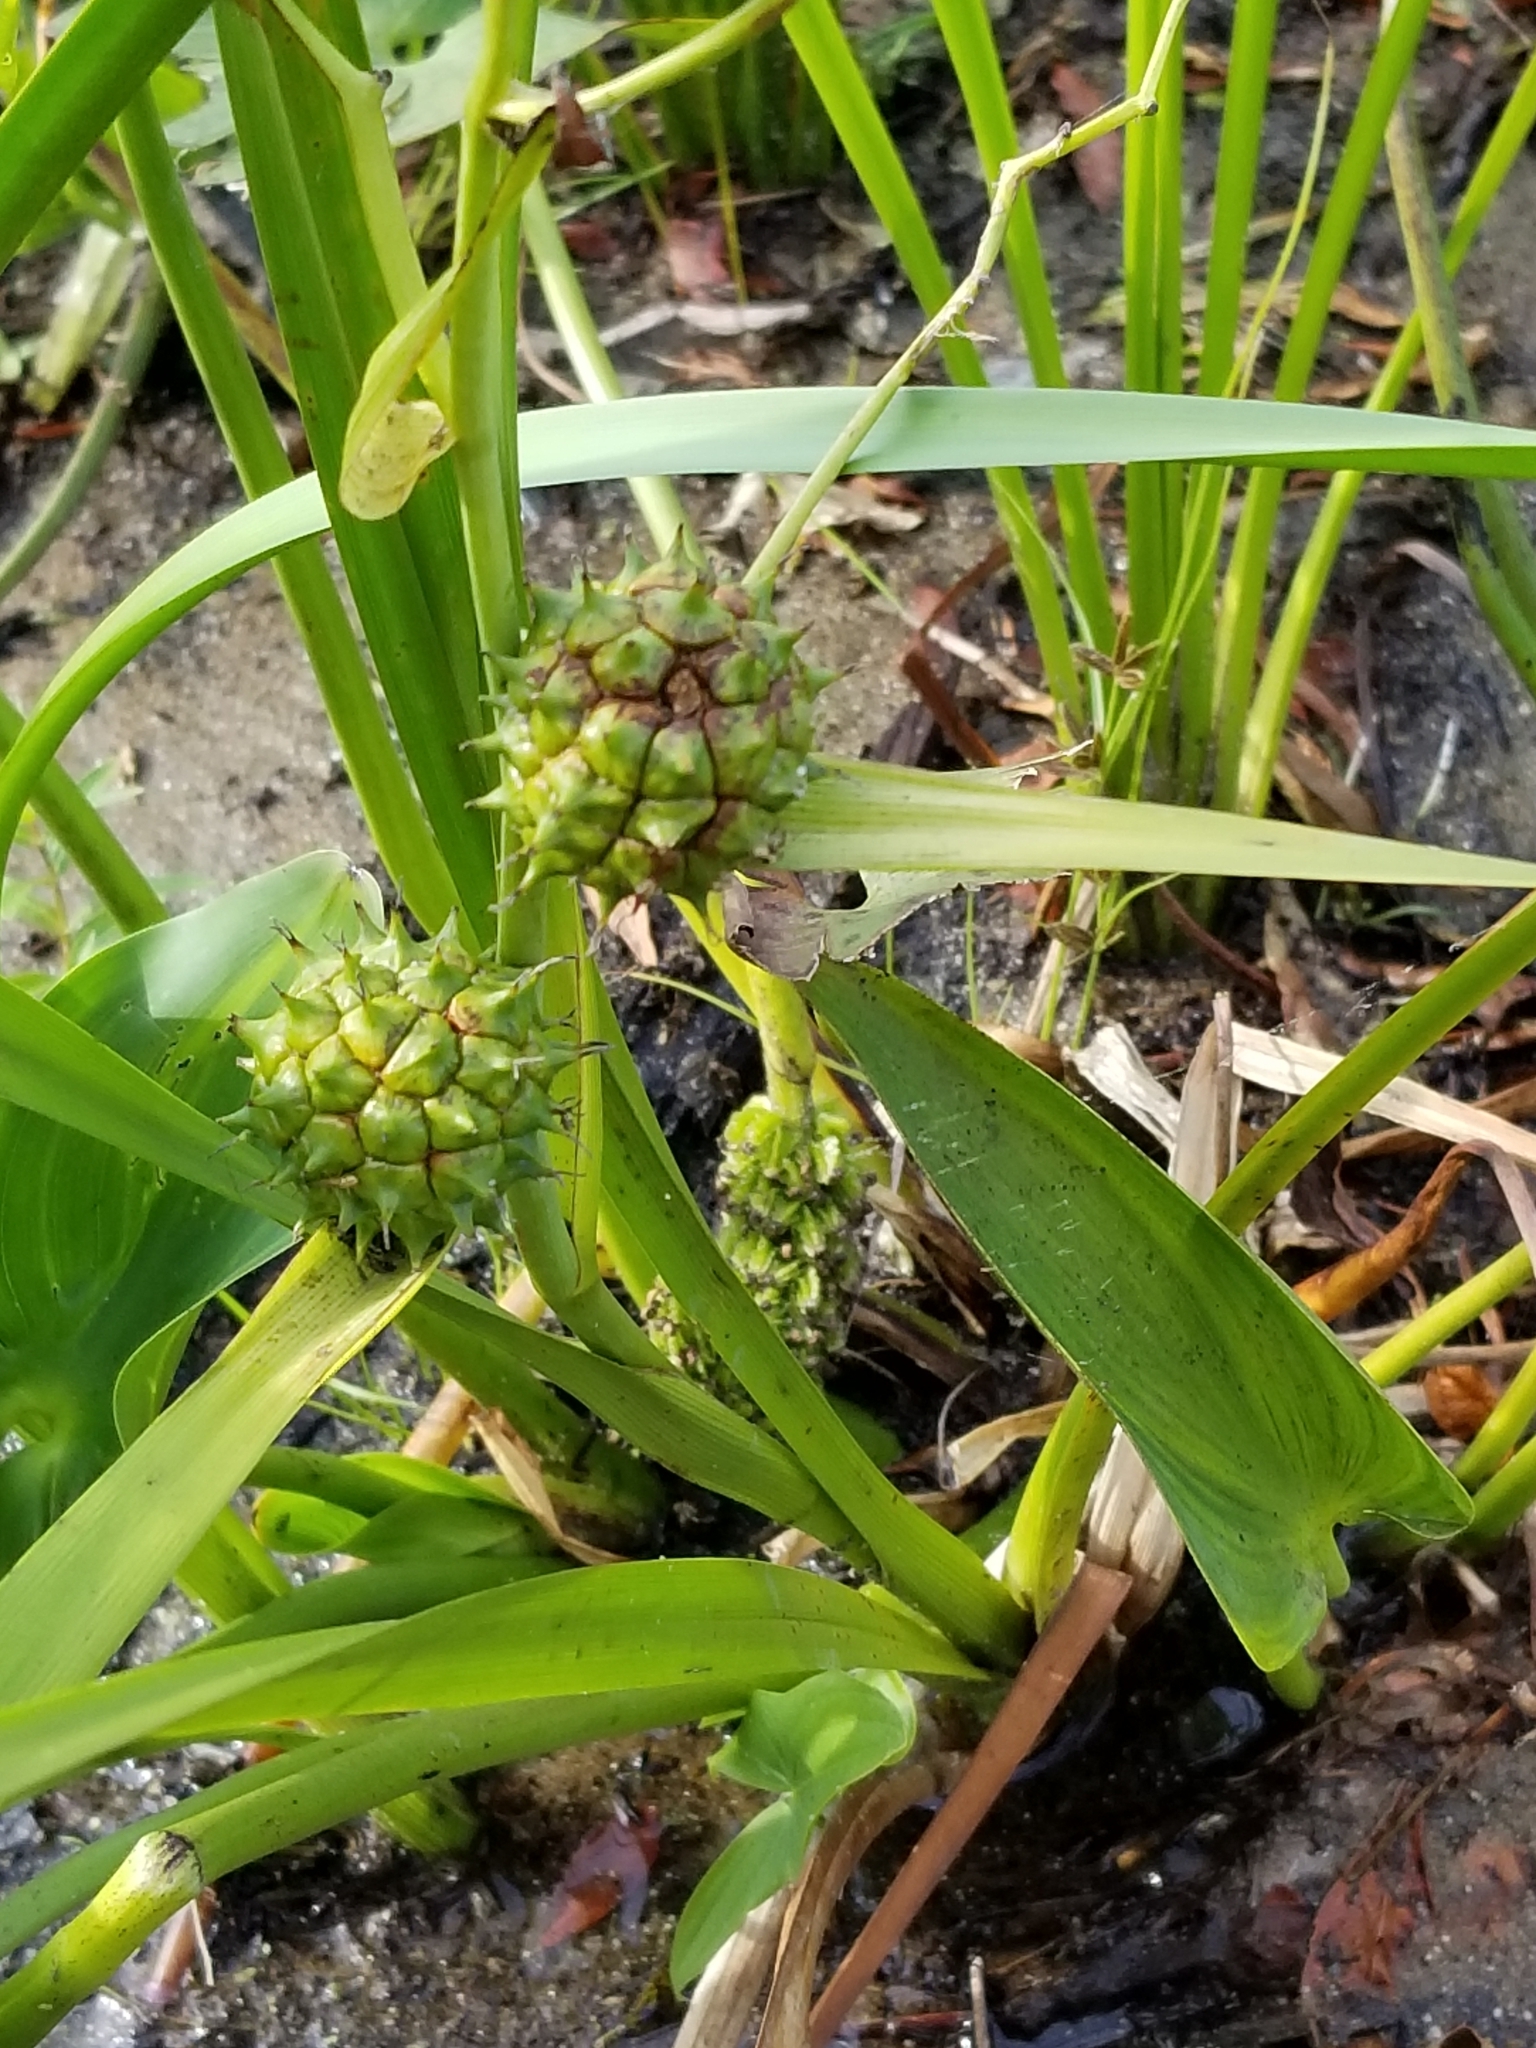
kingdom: Plantae
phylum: Tracheophyta
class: Liliopsida
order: Poales
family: Typhaceae
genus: Sparganium
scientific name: Sparganium eurycarpum
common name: Broad-fruited burreed
